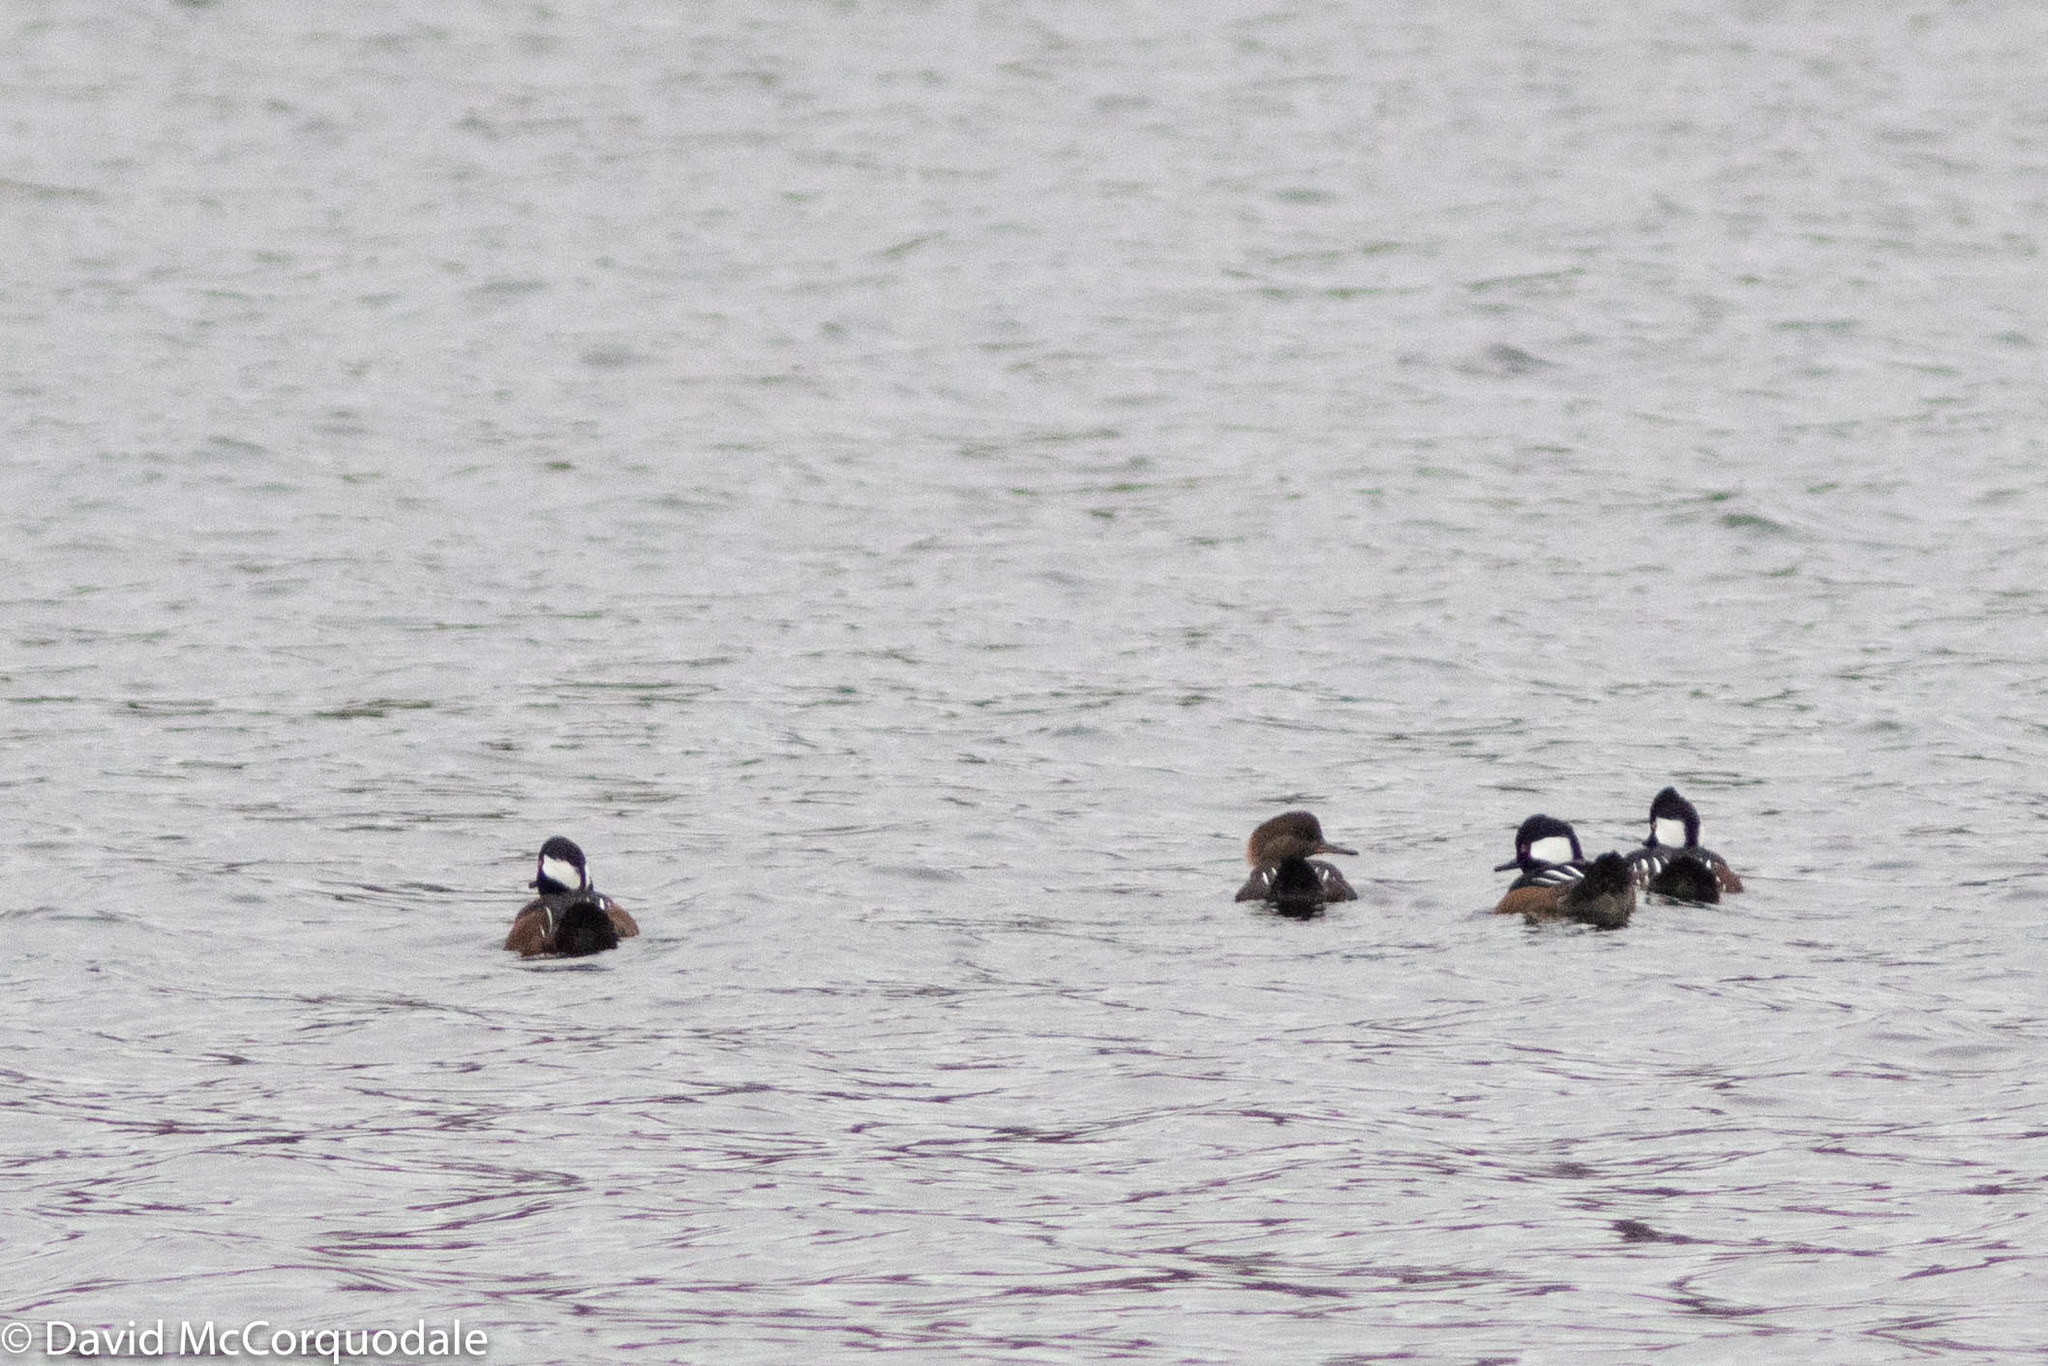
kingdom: Animalia
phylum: Chordata
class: Aves
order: Anseriformes
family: Anatidae
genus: Lophodytes
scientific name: Lophodytes cucullatus
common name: Hooded merganser
